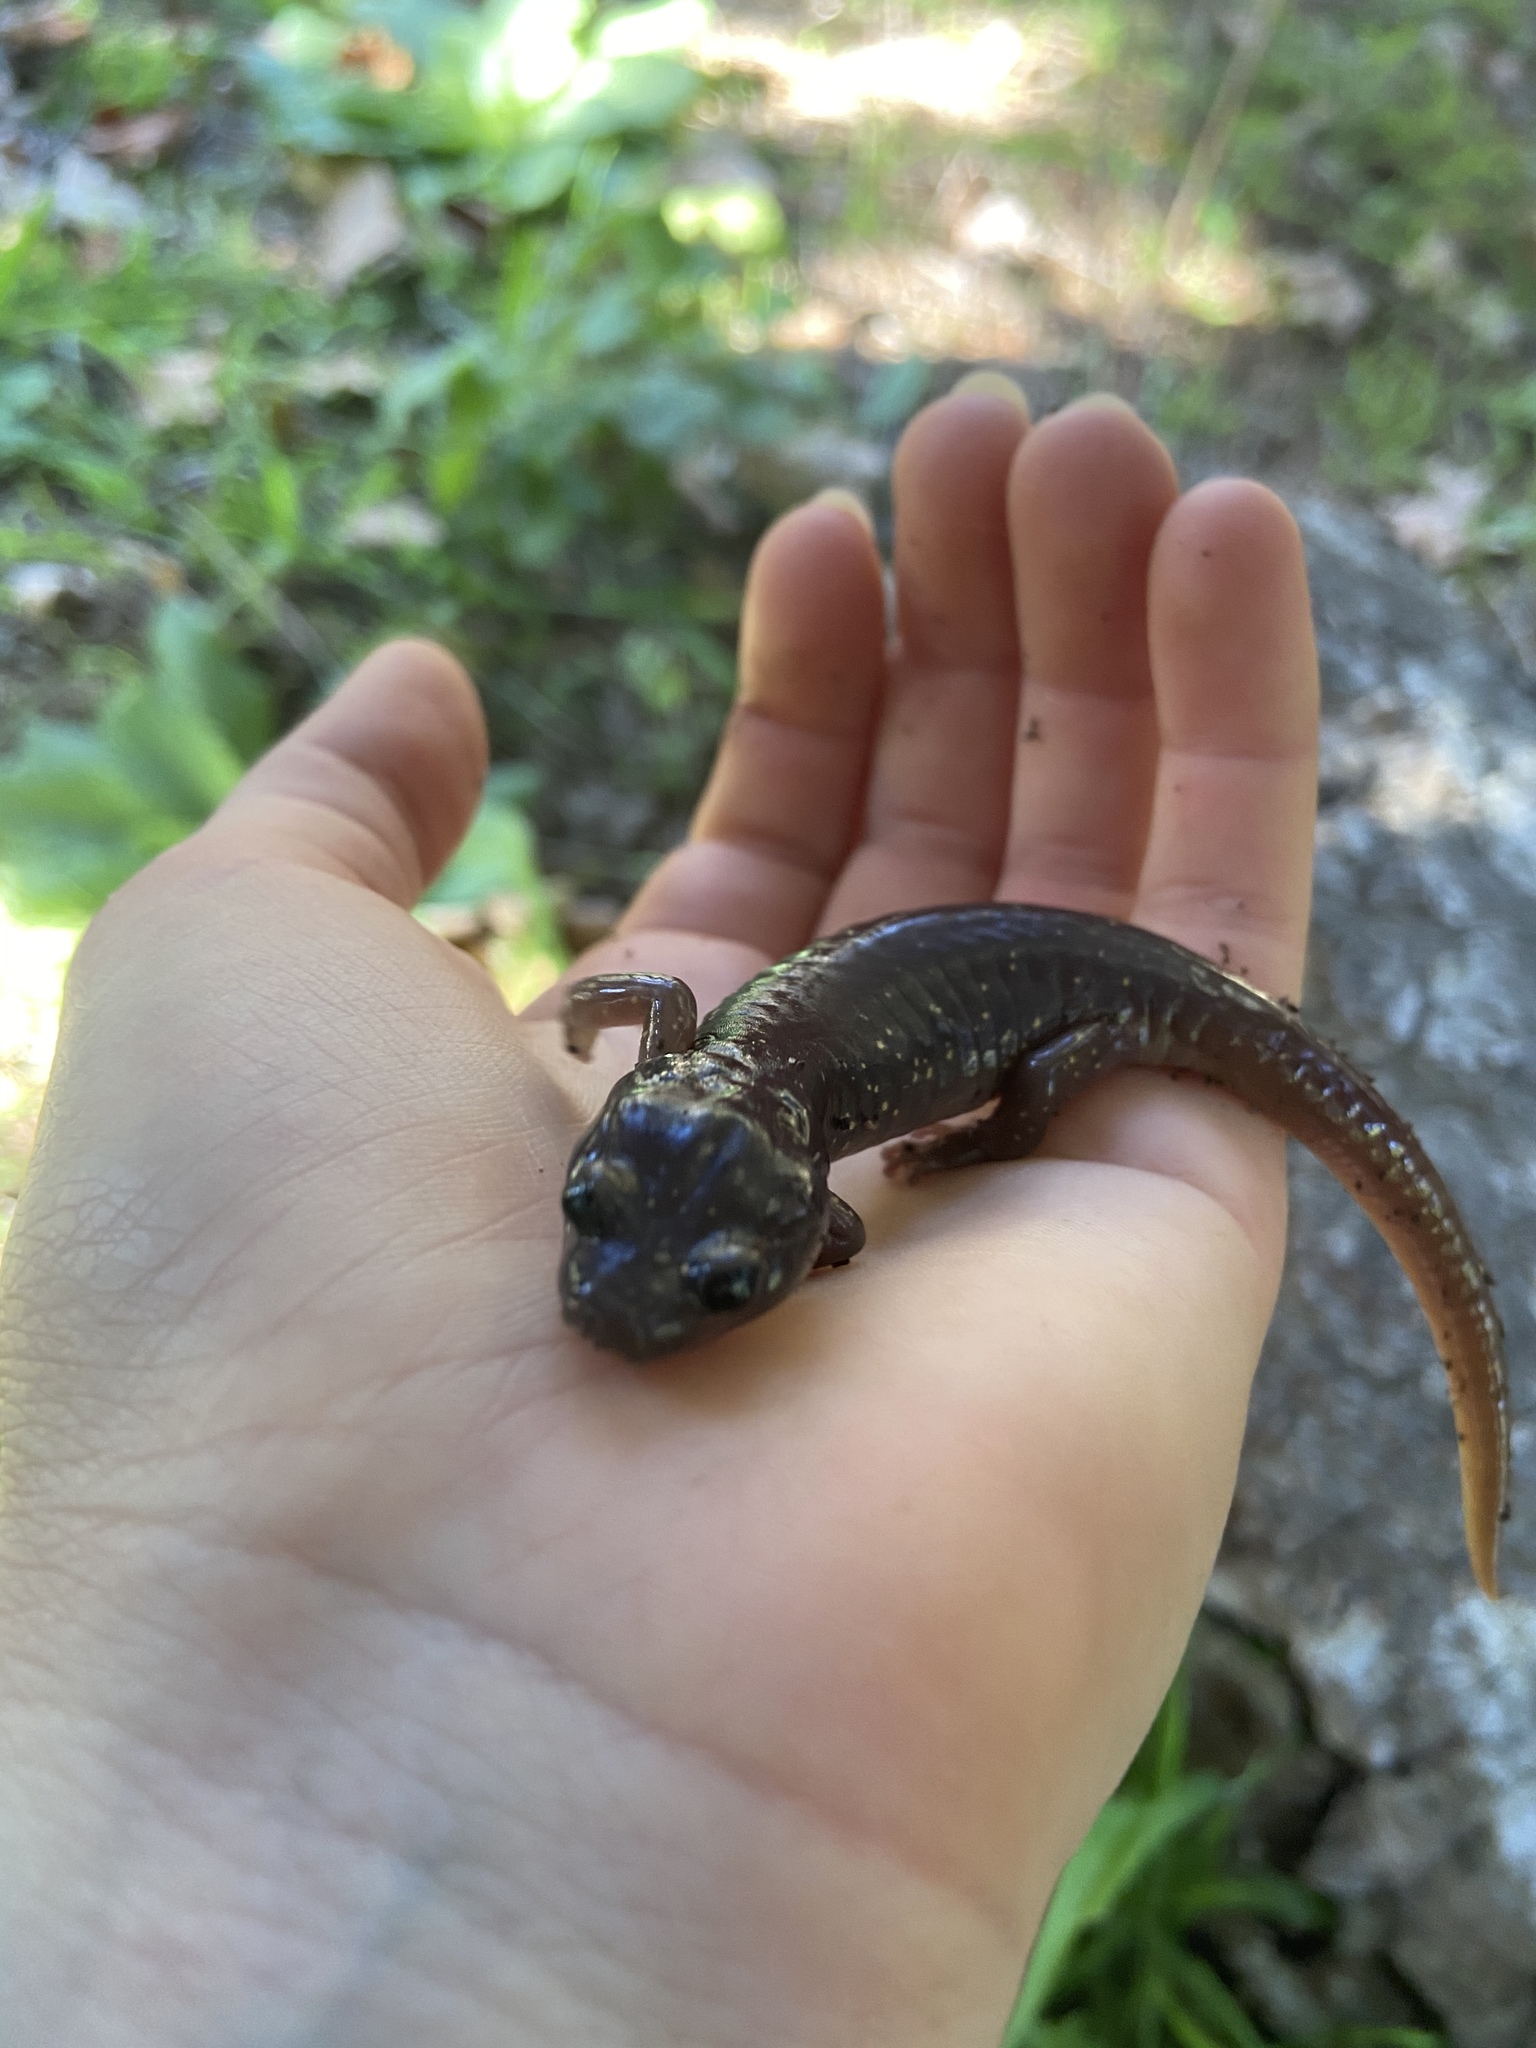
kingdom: Animalia
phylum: Chordata
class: Amphibia
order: Caudata
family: Plethodontidae
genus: Aneides
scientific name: Aneides lugubris
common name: Arboreal salamander
